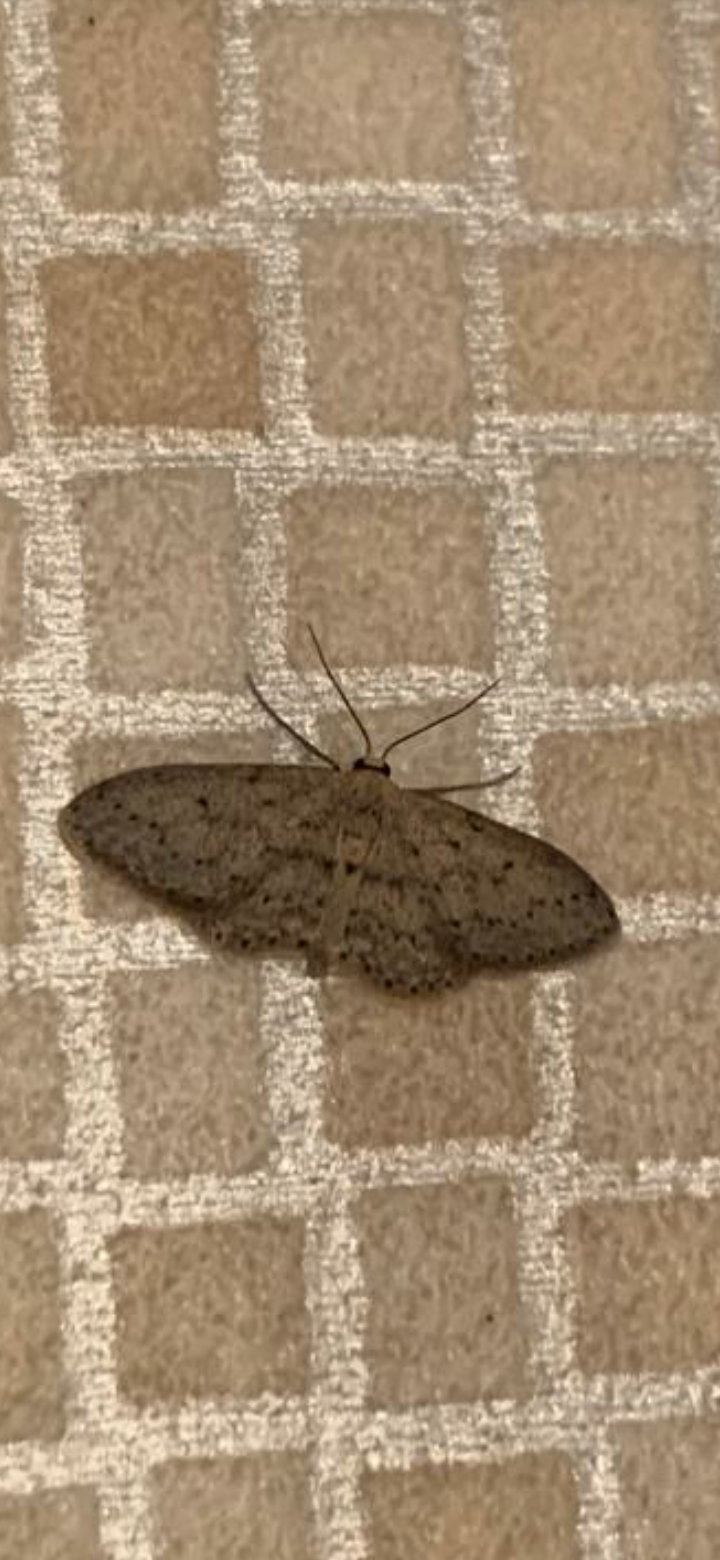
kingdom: Animalia
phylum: Arthropoda
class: Insecta
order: Lepidoptera
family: Geometridae
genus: Idaea
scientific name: Idaea seriata
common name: Small dusty wave
